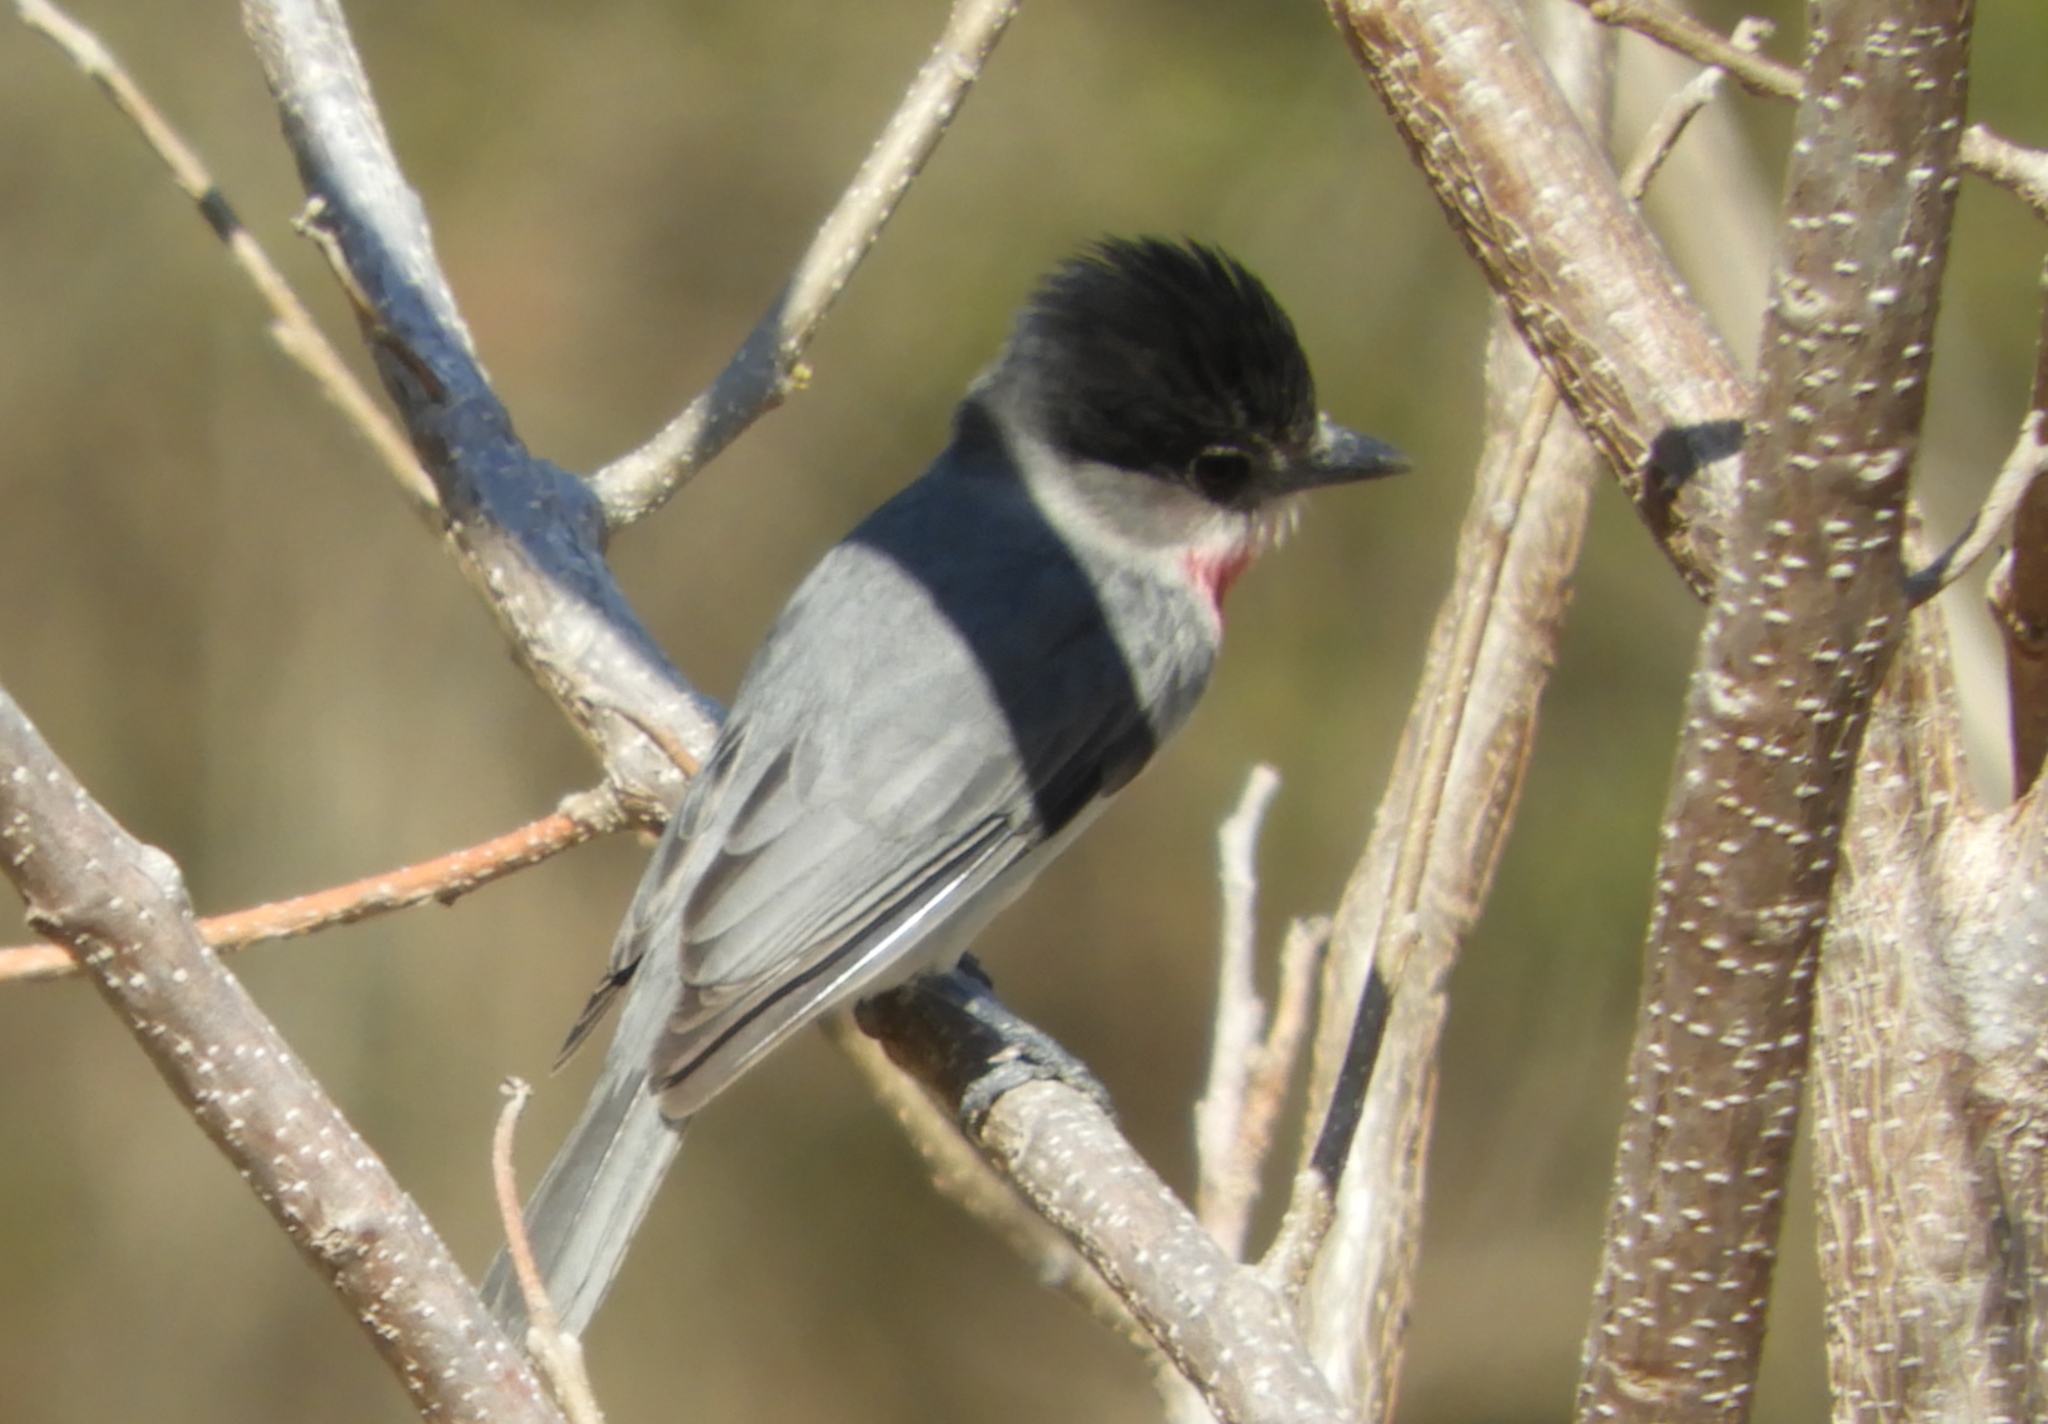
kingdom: Animalia
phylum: Chordata
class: Aves
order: Passeriformes
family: Cotingidae
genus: Pachyramphus
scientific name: Pachyramphus aglaiae
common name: Rose-throated becard
